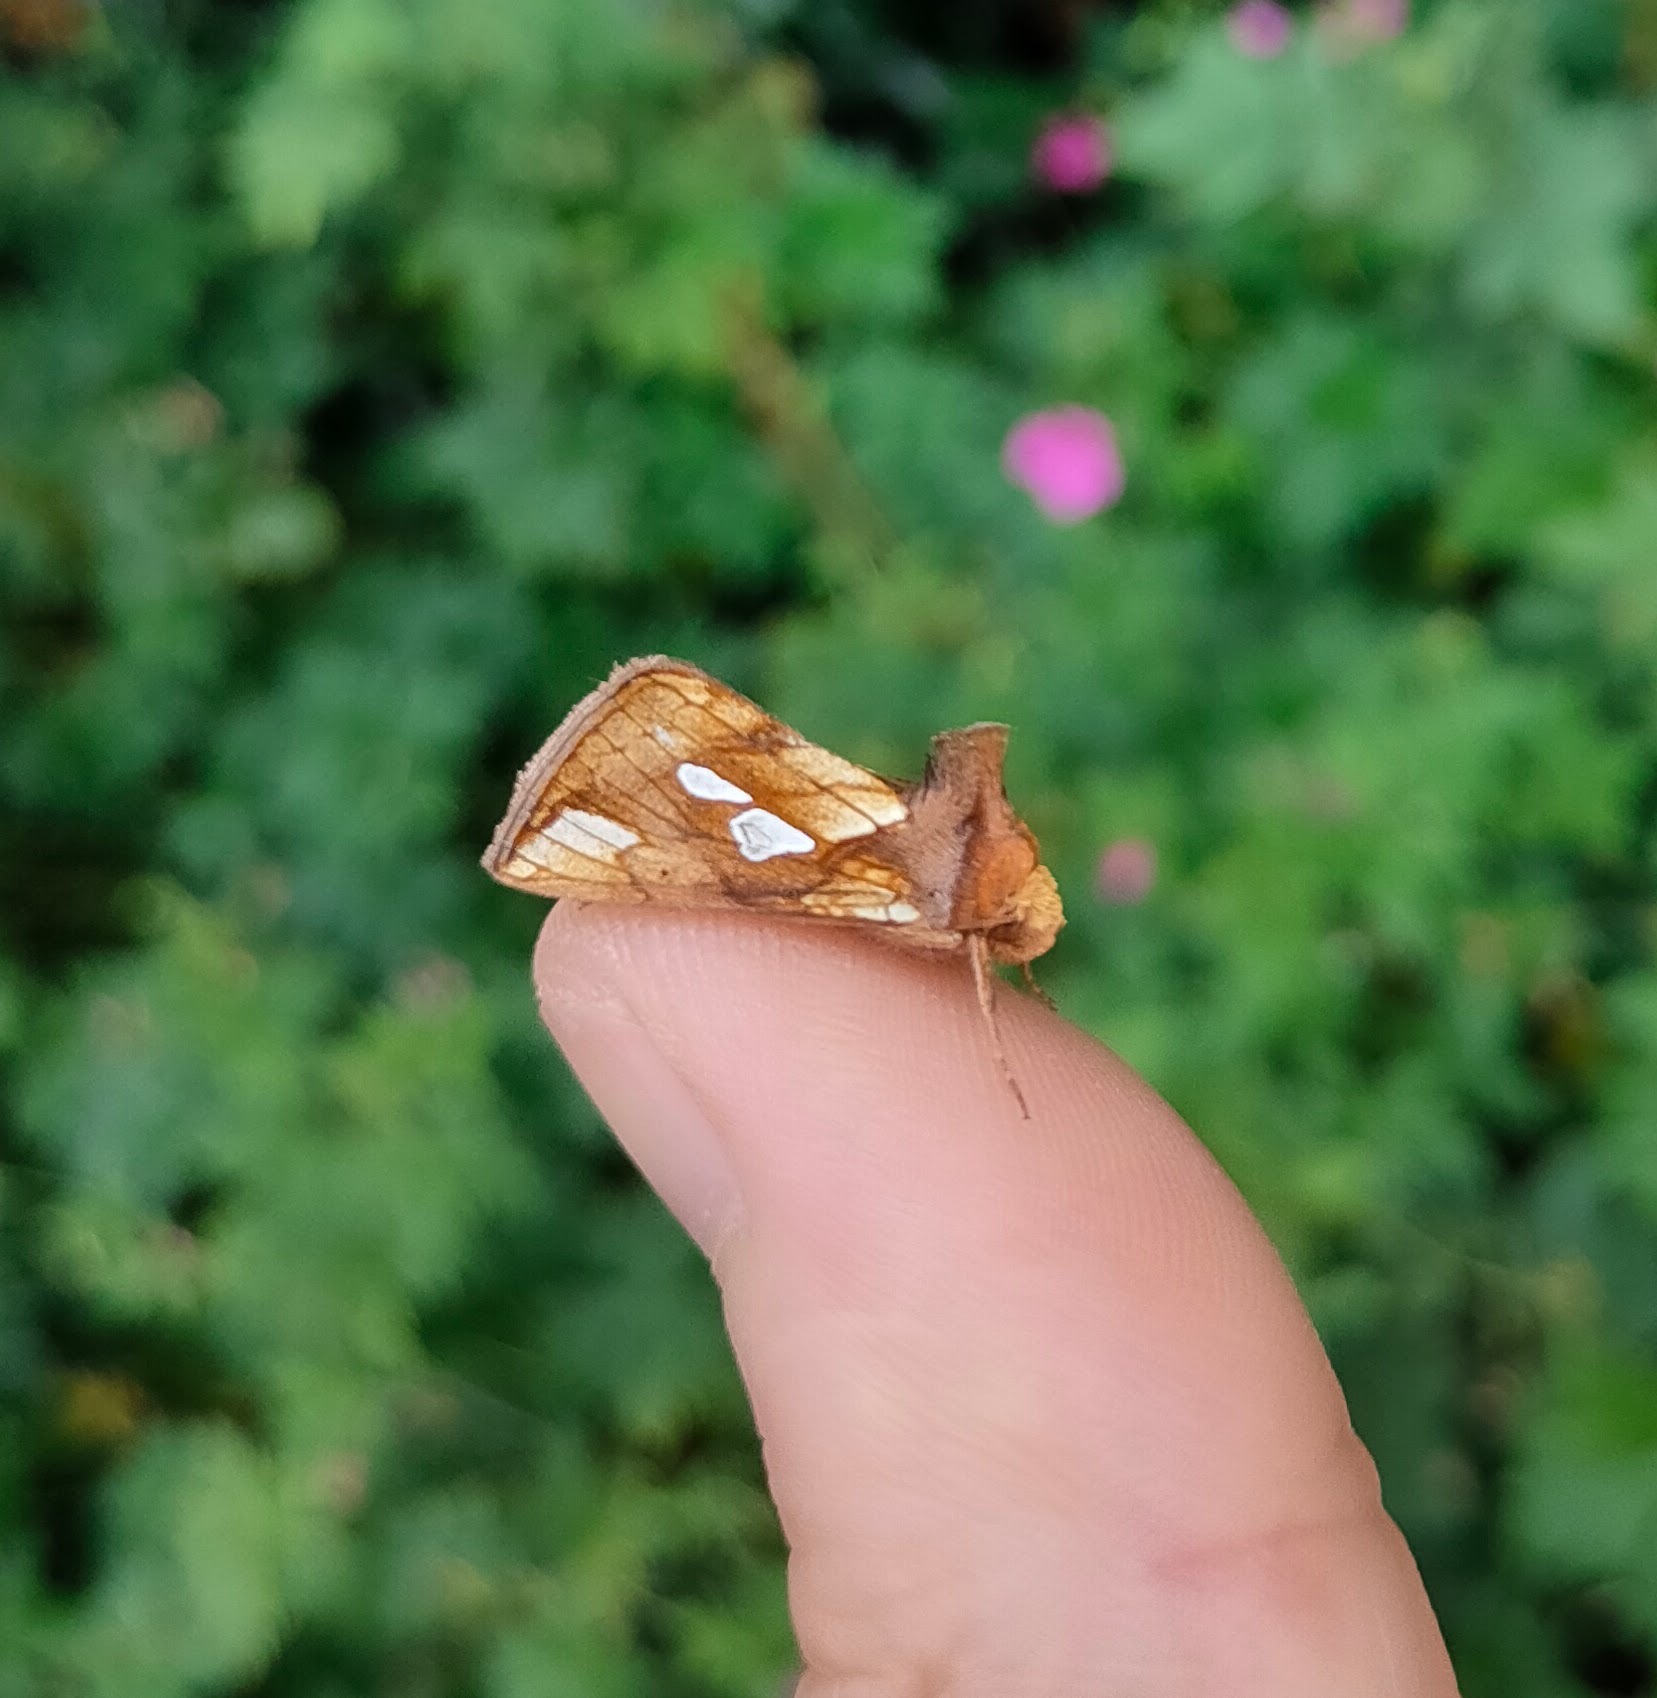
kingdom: Animalia
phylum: Arthropoda
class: Insecta
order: Lepidoptera
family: Noctuidae
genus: Plusia
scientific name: Plusia festucae
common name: Gold spot
